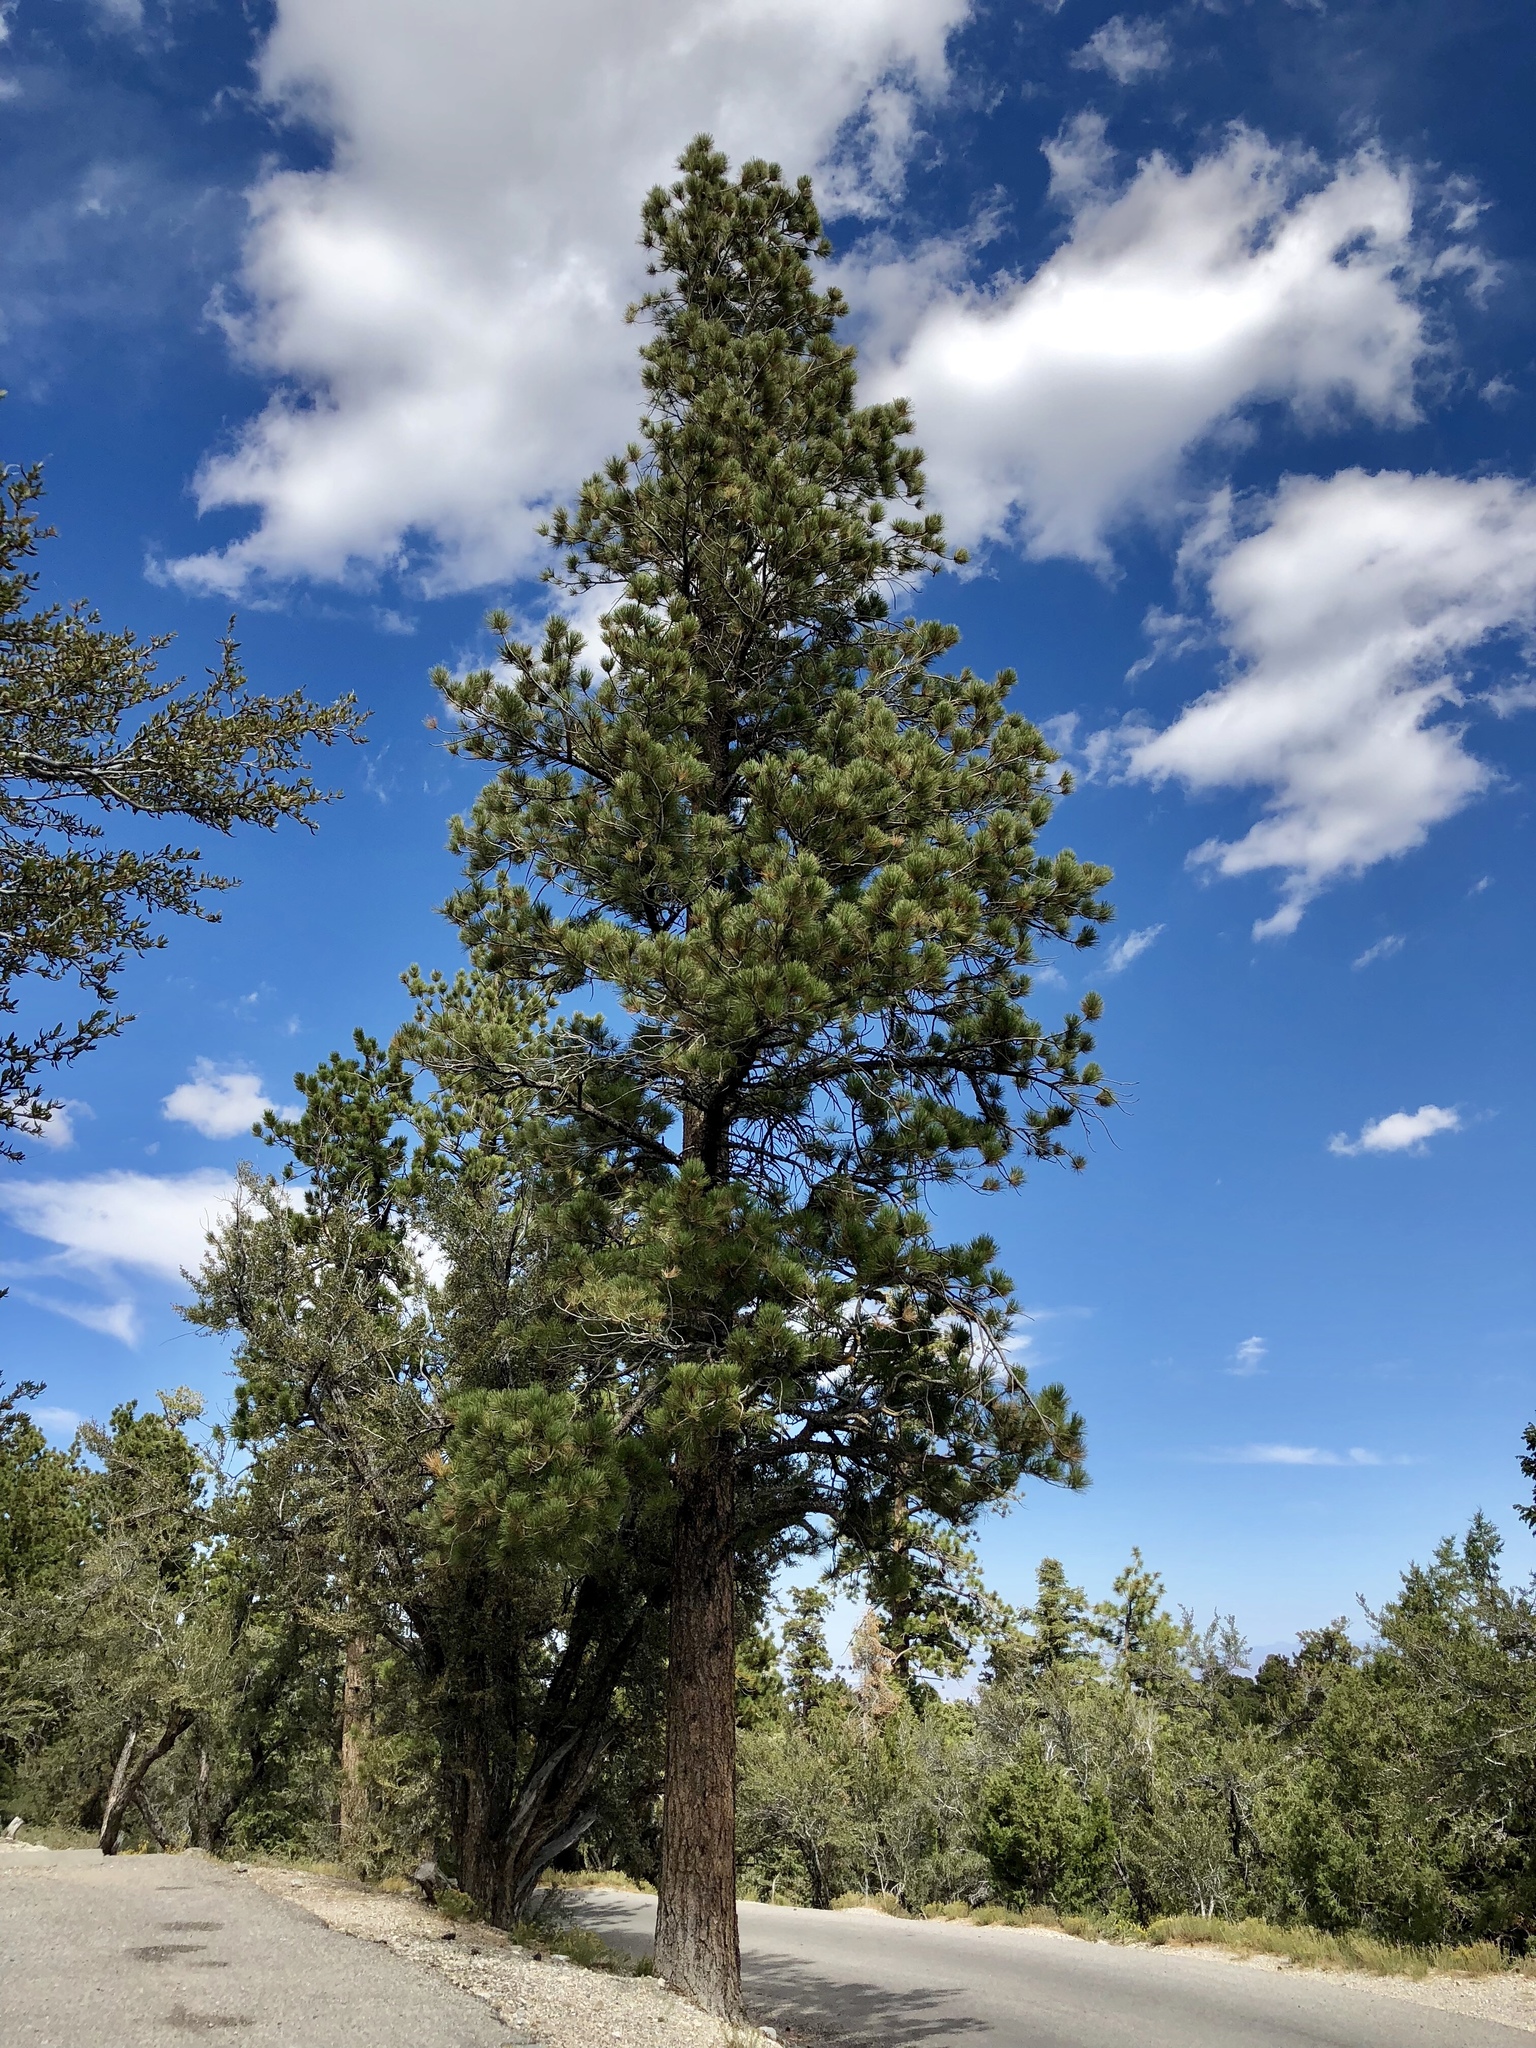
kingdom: Plantae
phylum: Tracheophyta
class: Pinopsida
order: Pinales
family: Pinaceae
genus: Pinus
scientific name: Pinus ponderosa
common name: Western yellow-pine
